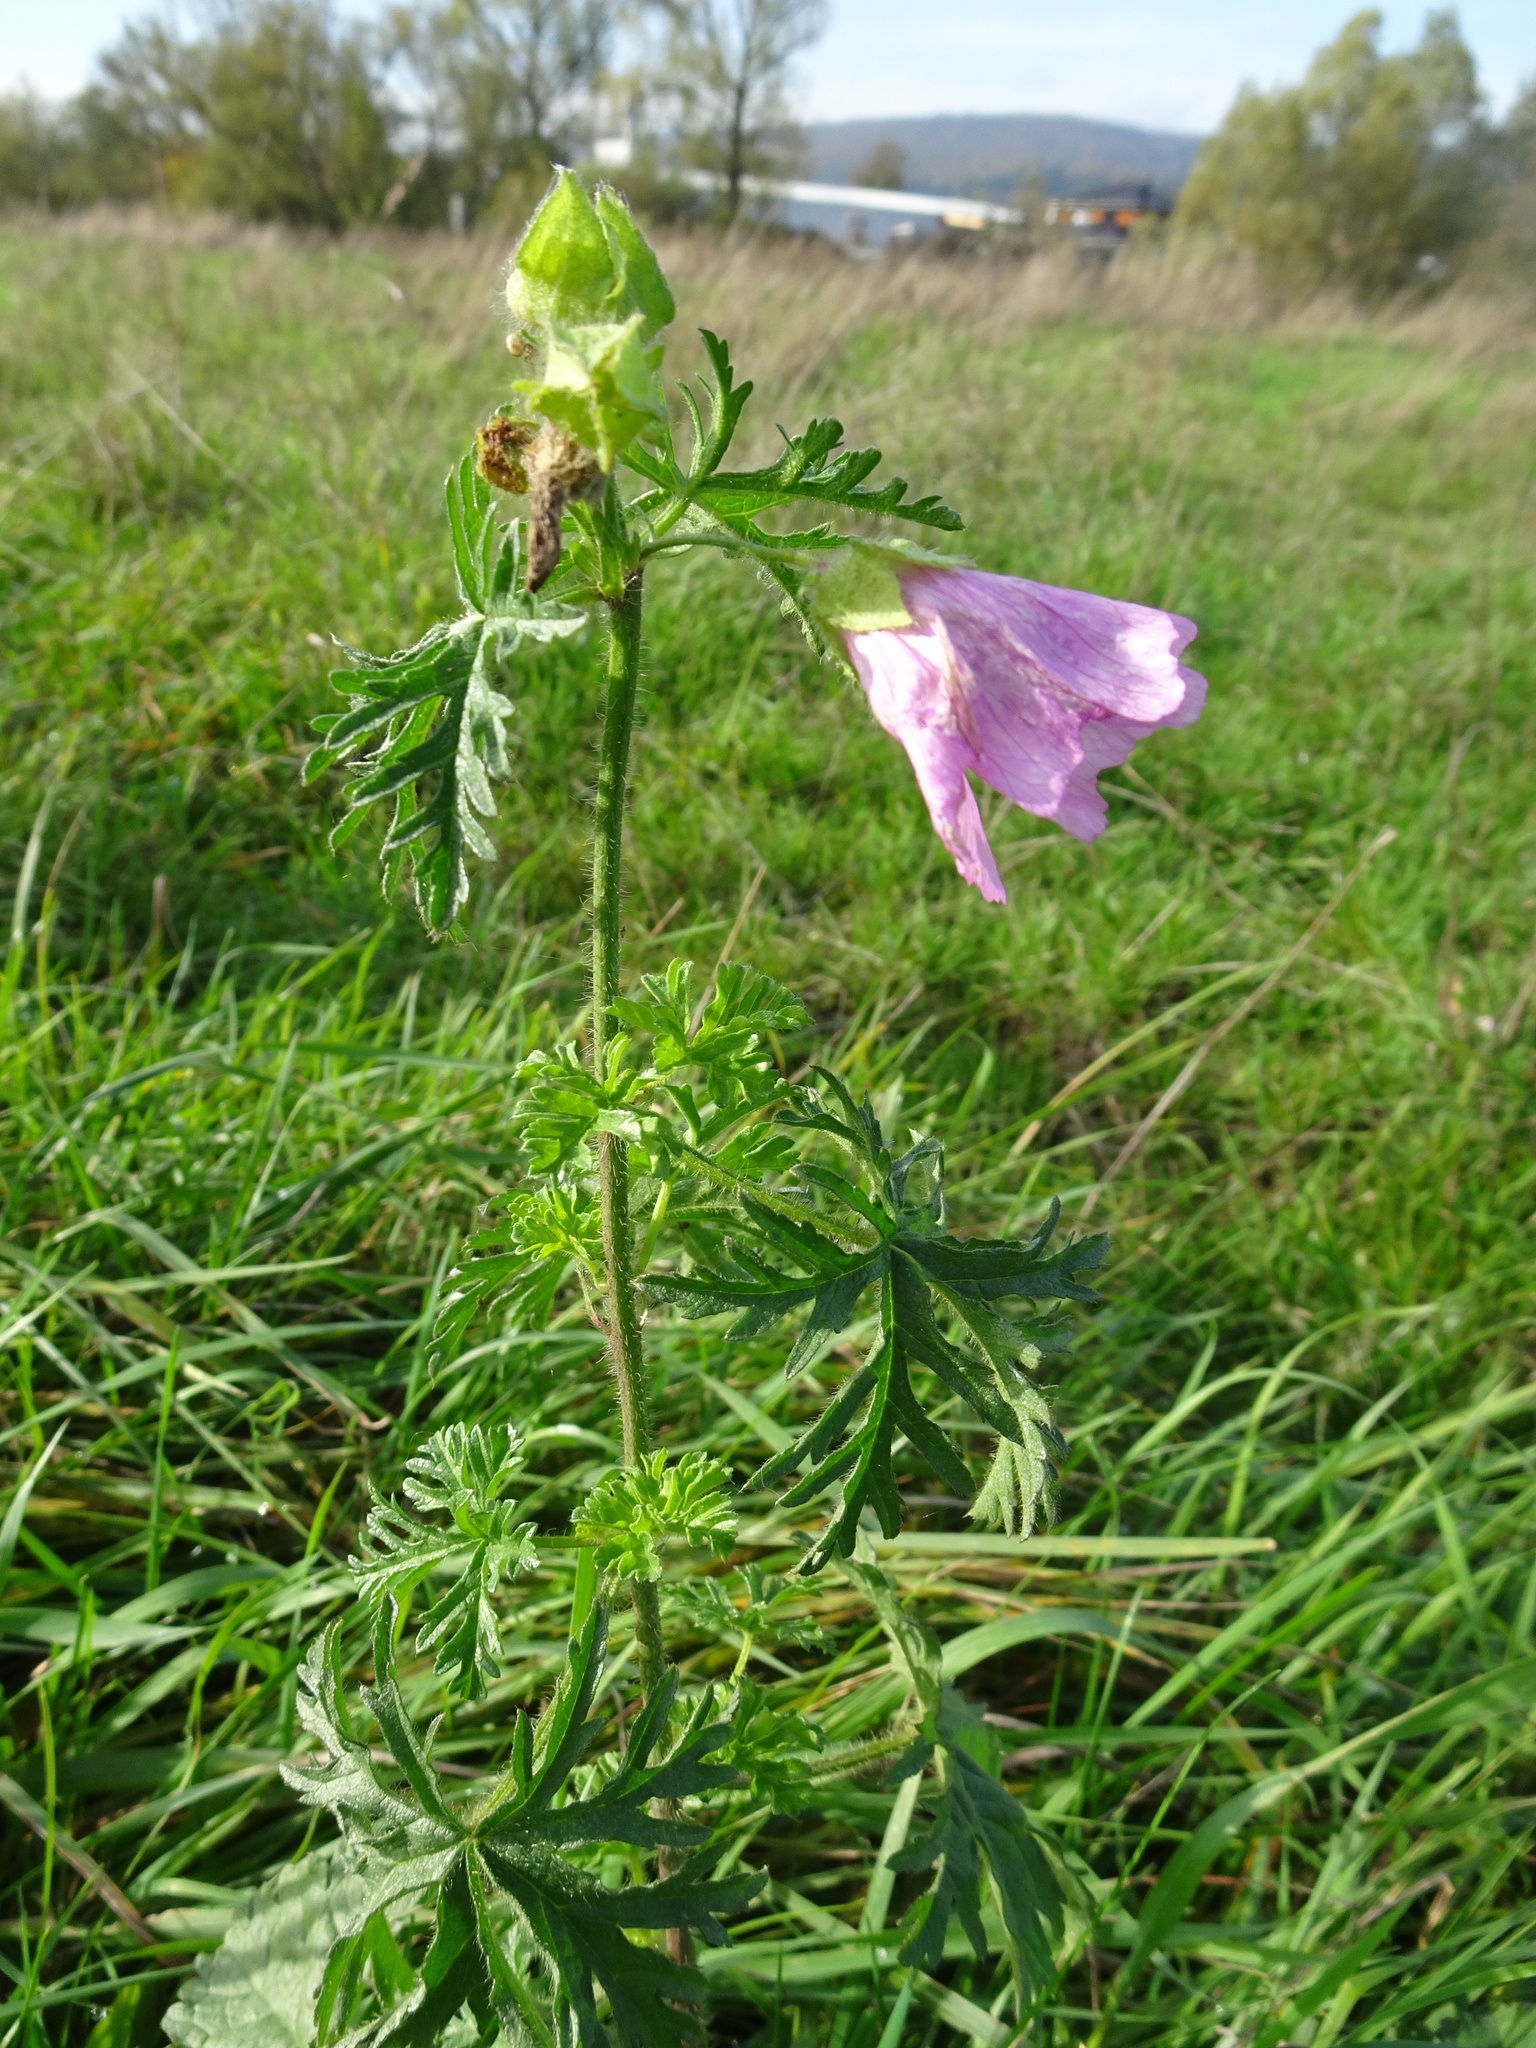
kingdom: Plantae
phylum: Tracheophyta
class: Magnoliopsida
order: Malvales
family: Malvaceae
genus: Malva
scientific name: Malva moschata
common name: Musk mallow
